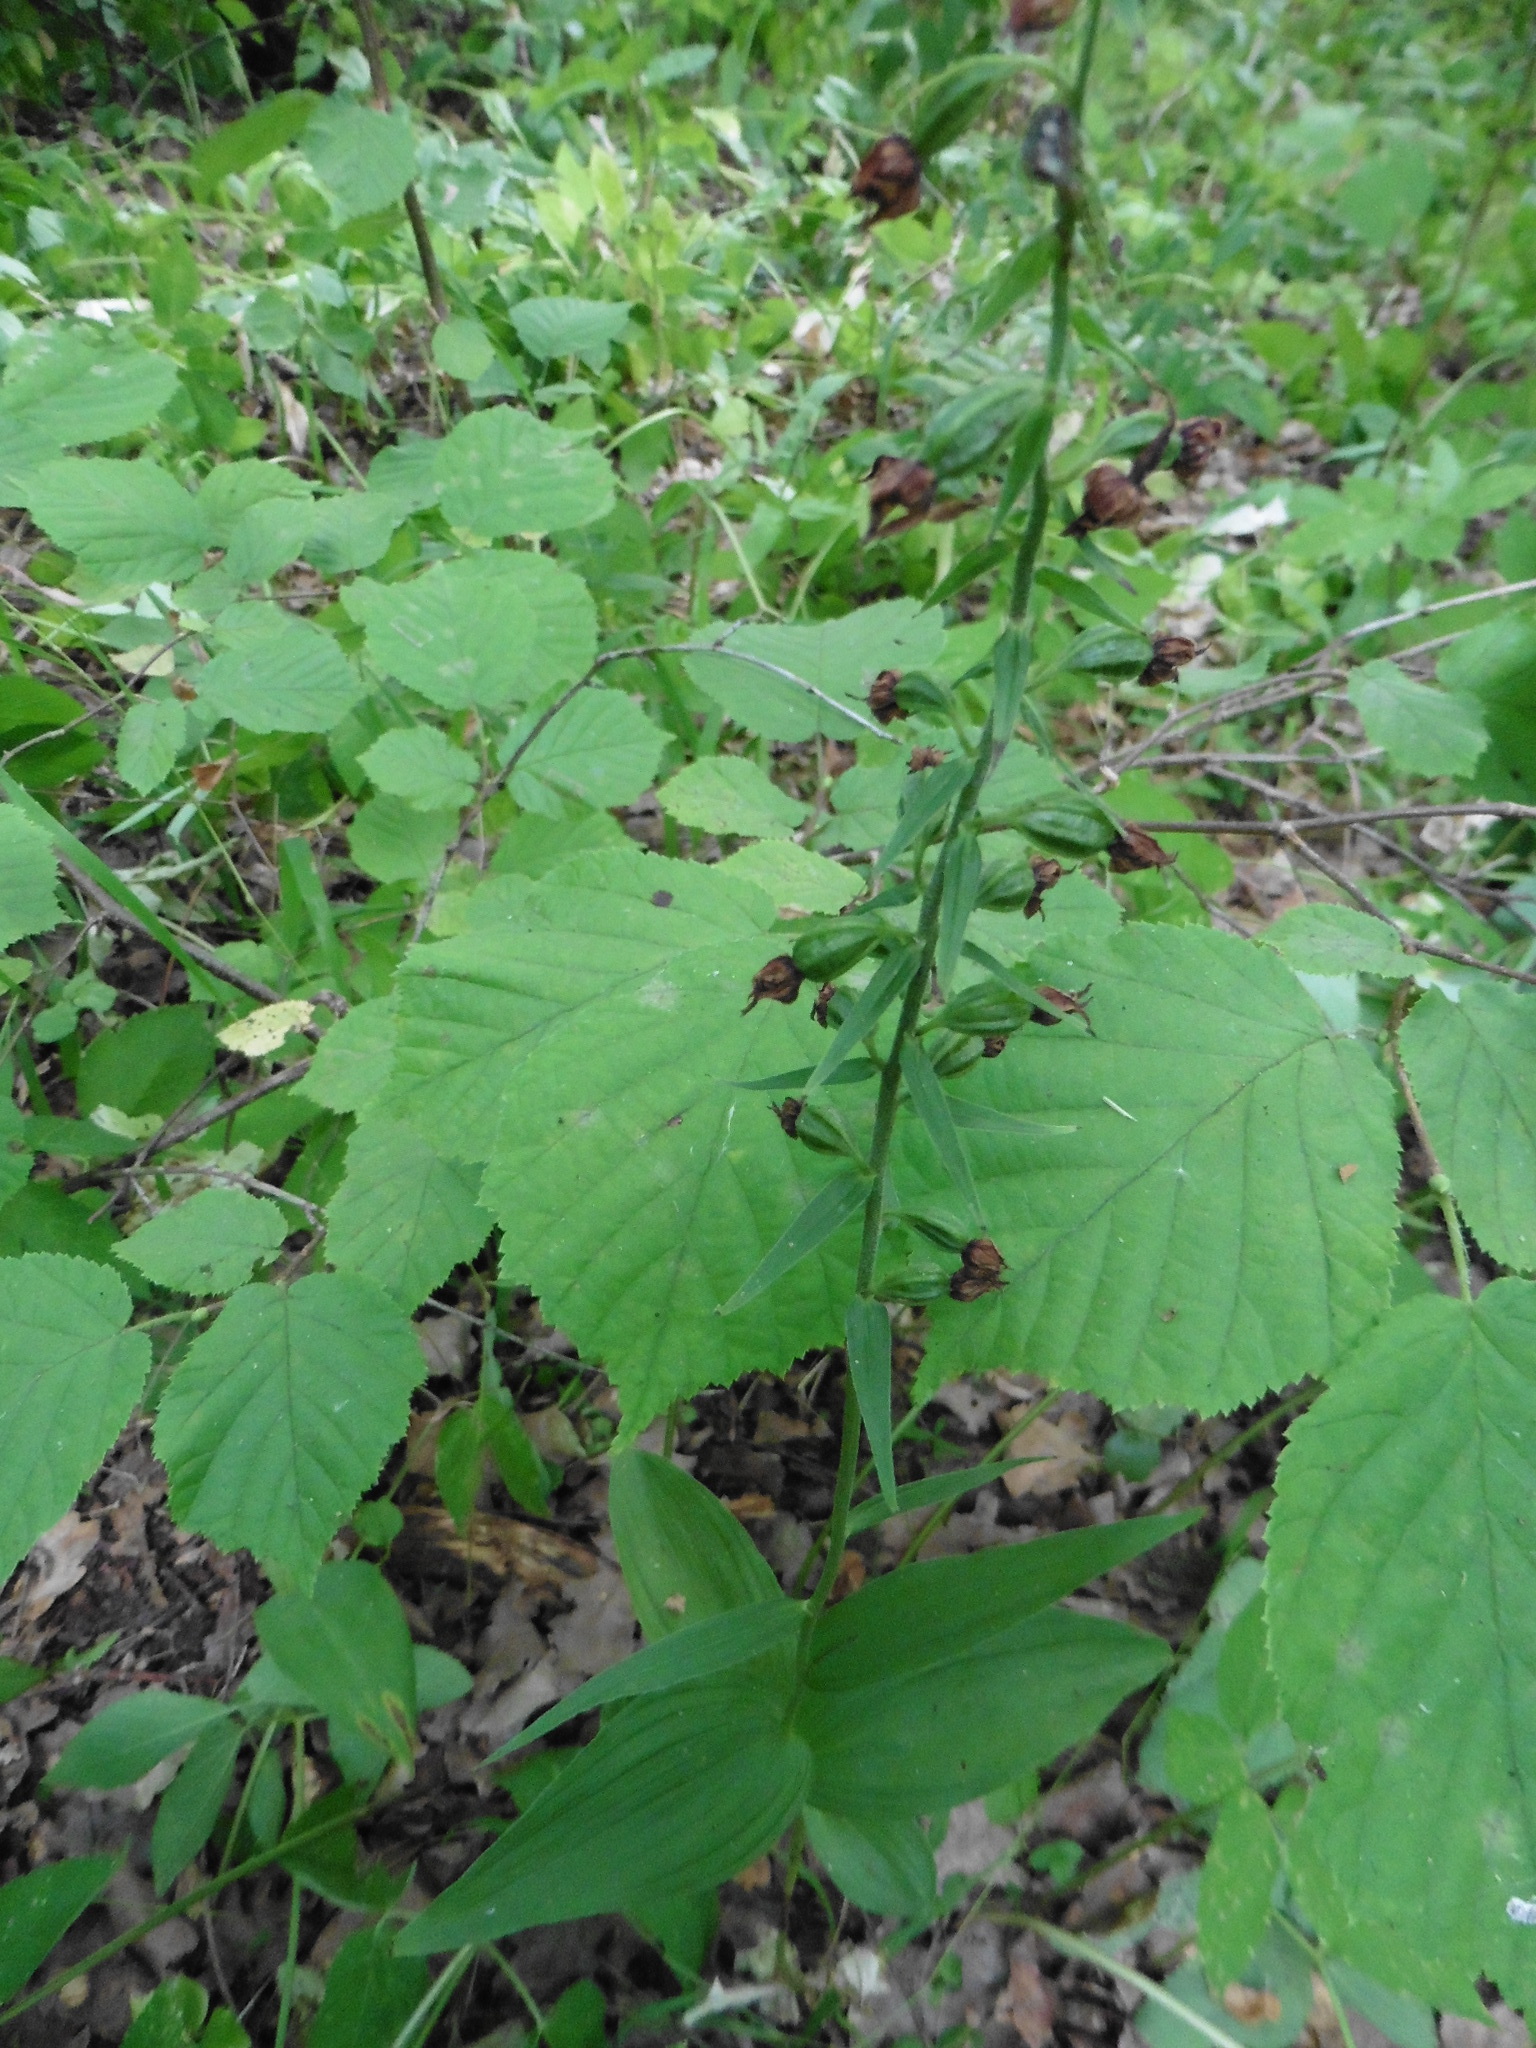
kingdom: Plantae
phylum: Tracheophyta
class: Liliopsida
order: Asparagales
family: Orchidaceae
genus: Epipactis
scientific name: Epipactis helleborine
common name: Broad-leaved helleborine
